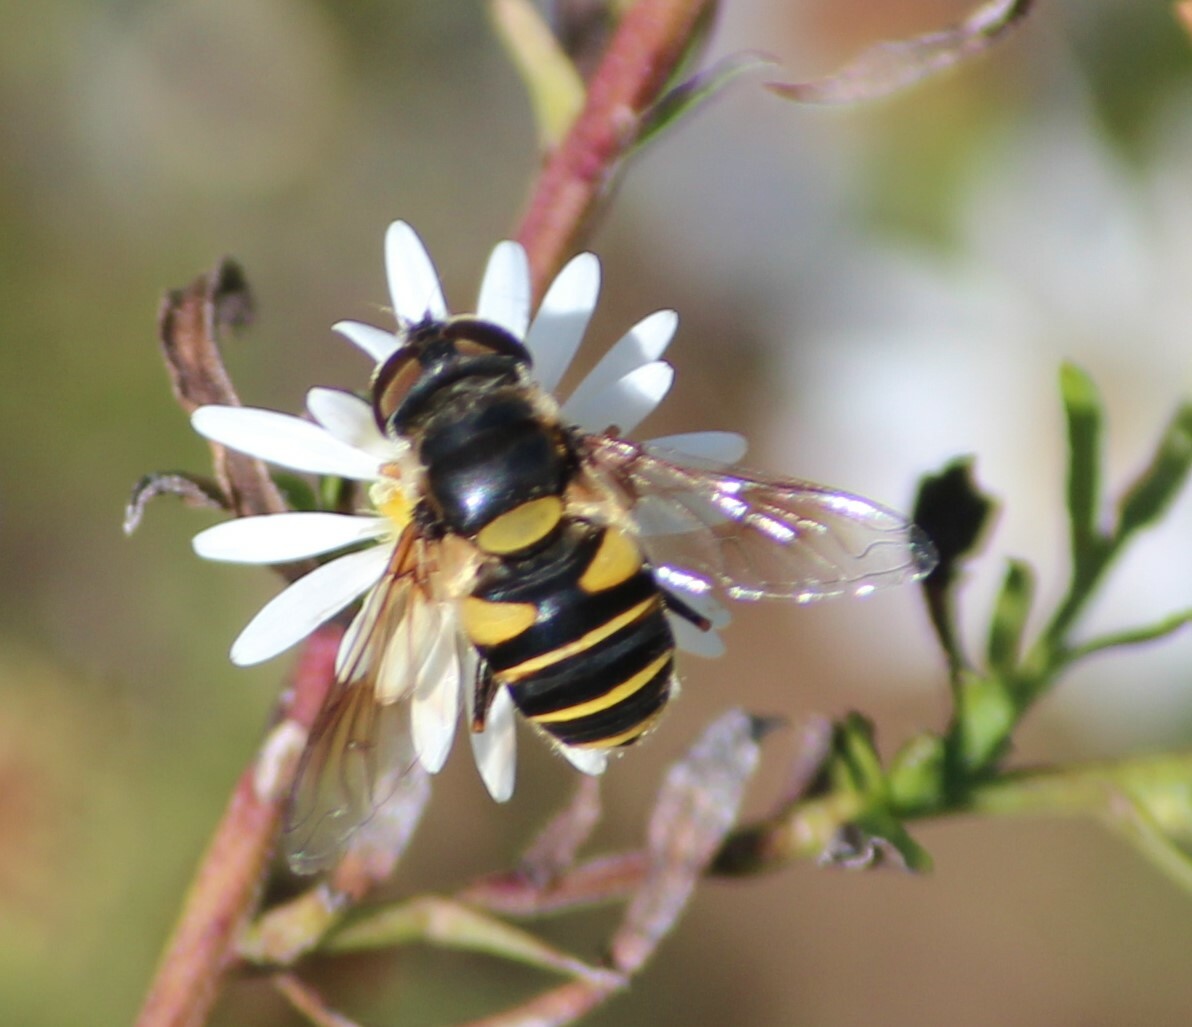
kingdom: Animalia
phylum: Arthropoda
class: Insecta
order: Diptera
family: Syrphidae
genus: Eristalis
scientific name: Eristalis transversa
